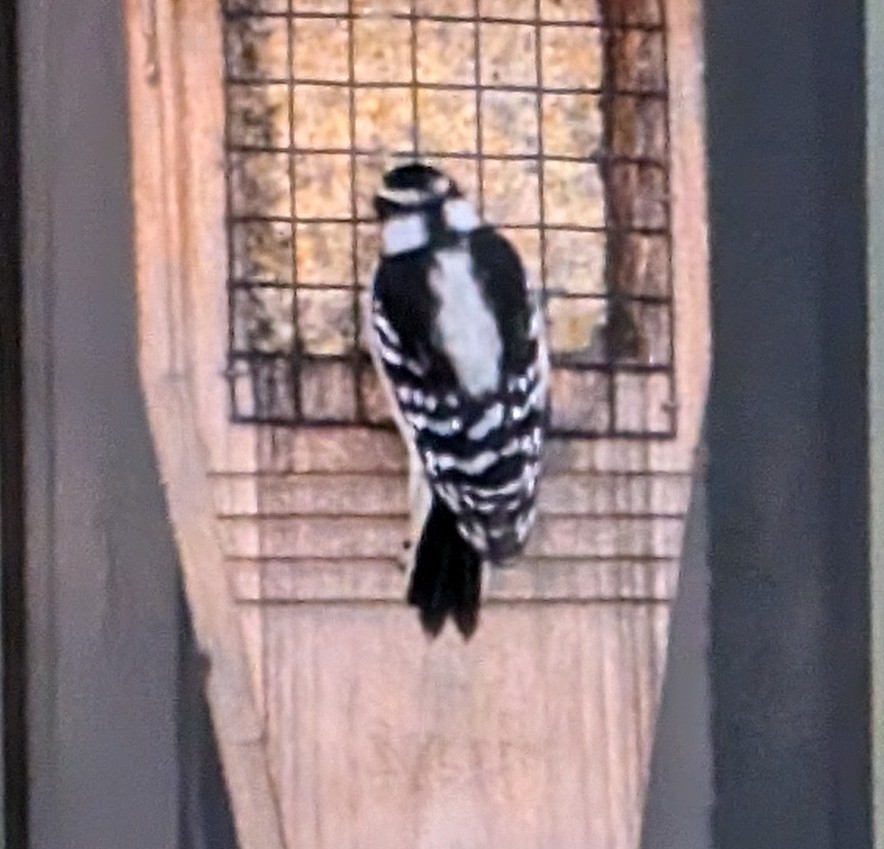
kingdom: Animalia
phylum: Chordata
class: Aves
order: Piciformes
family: Picidae
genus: Dryobates
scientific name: Dryobates pubescens
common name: Downy woodpecker
